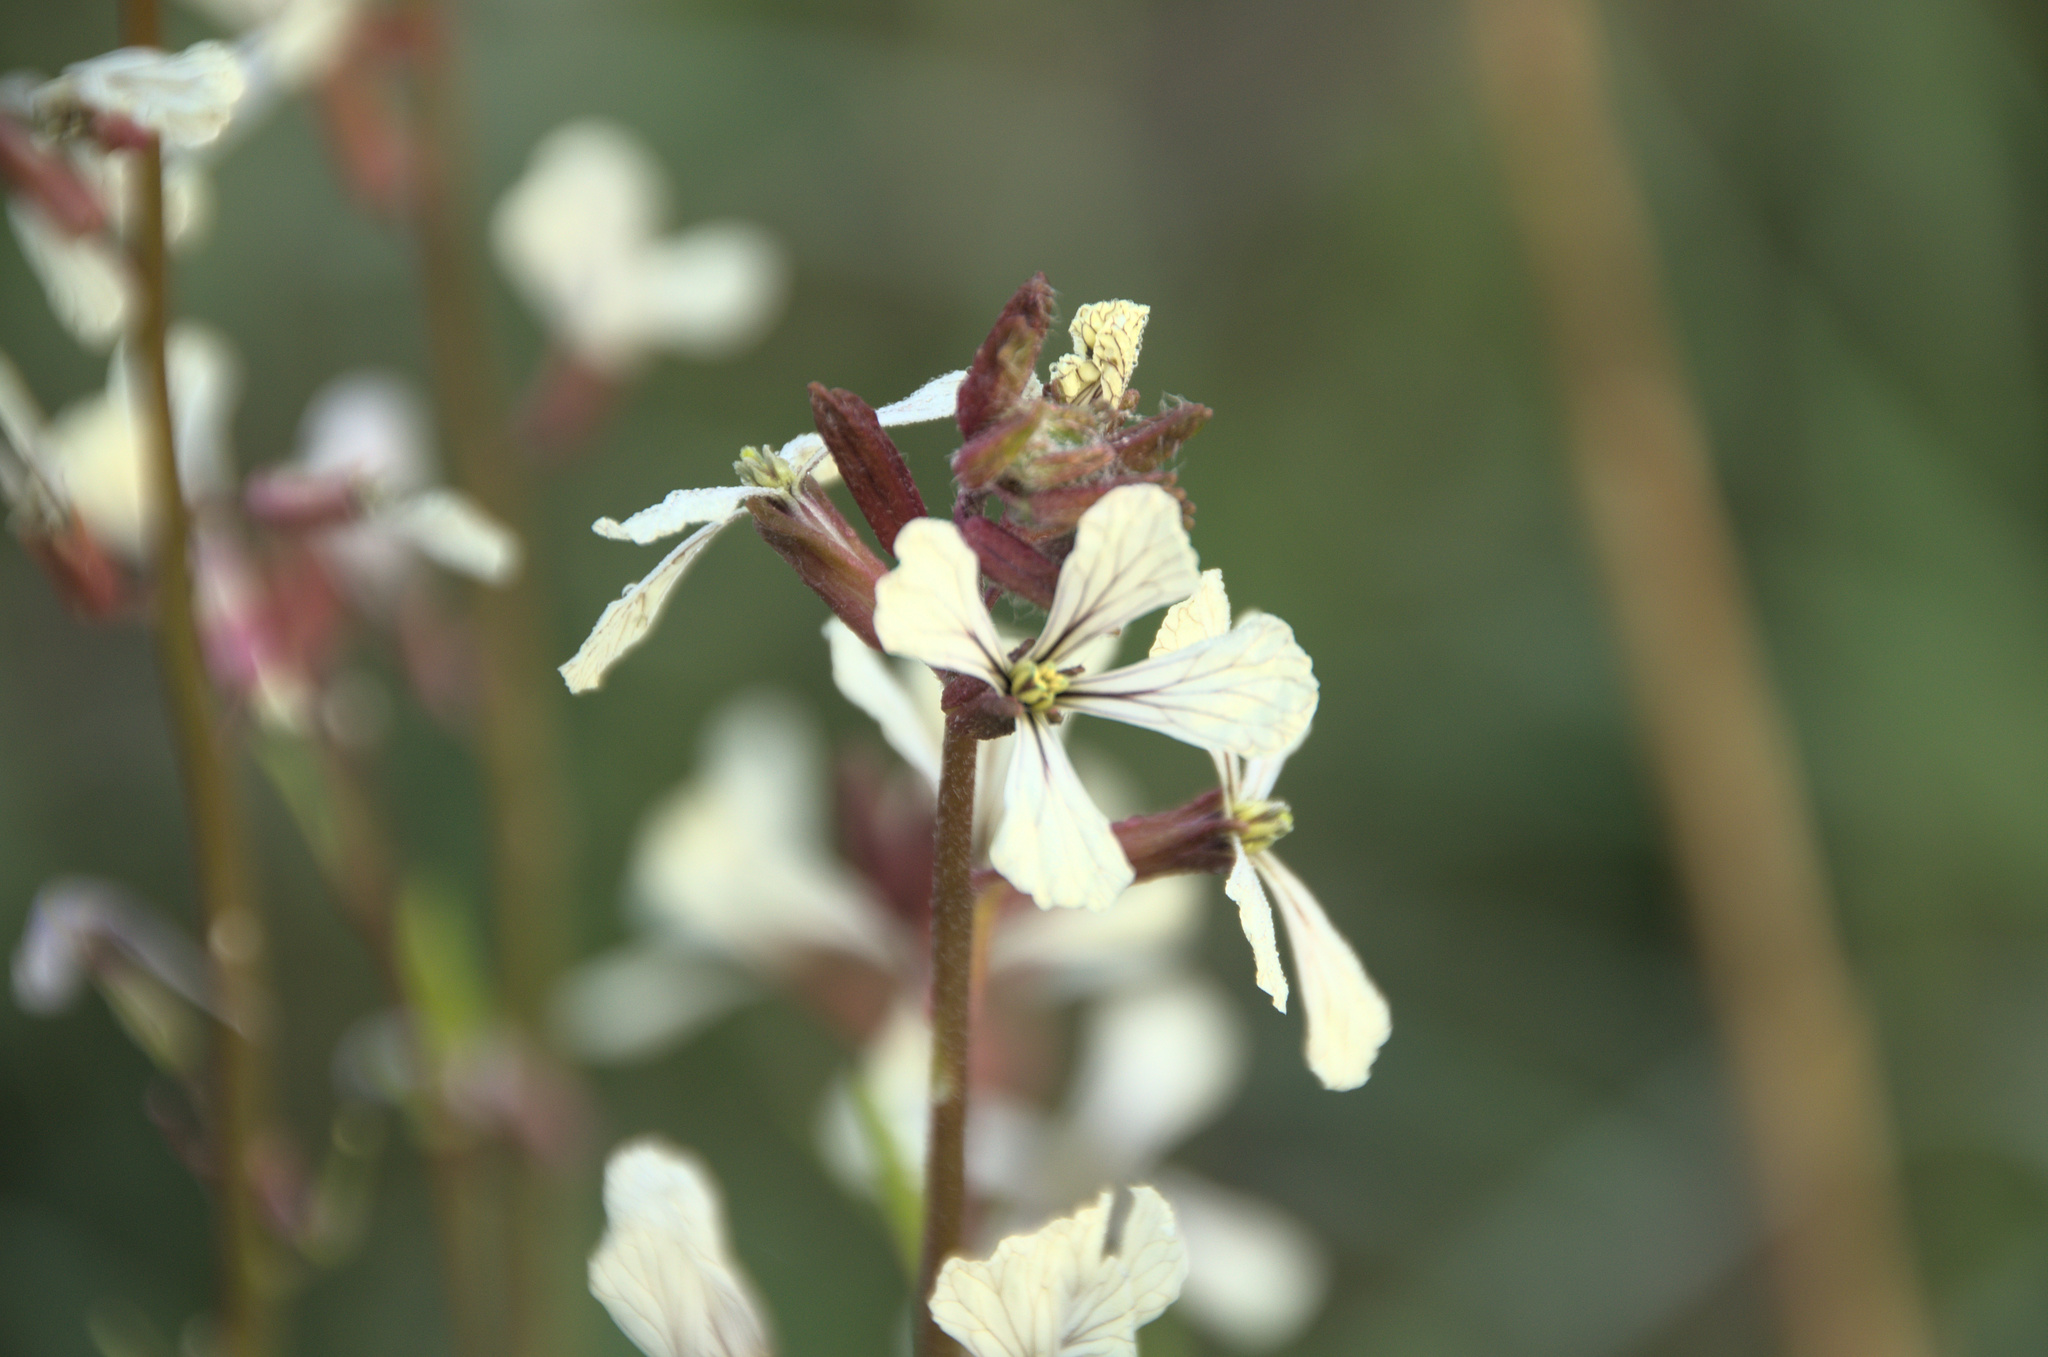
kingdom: Plantae
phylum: Tracheophyta
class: Magnoliopsida
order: Brassicales
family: Brassicaceae
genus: Eruca
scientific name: Eruca vesicaria
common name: Garden rocket
